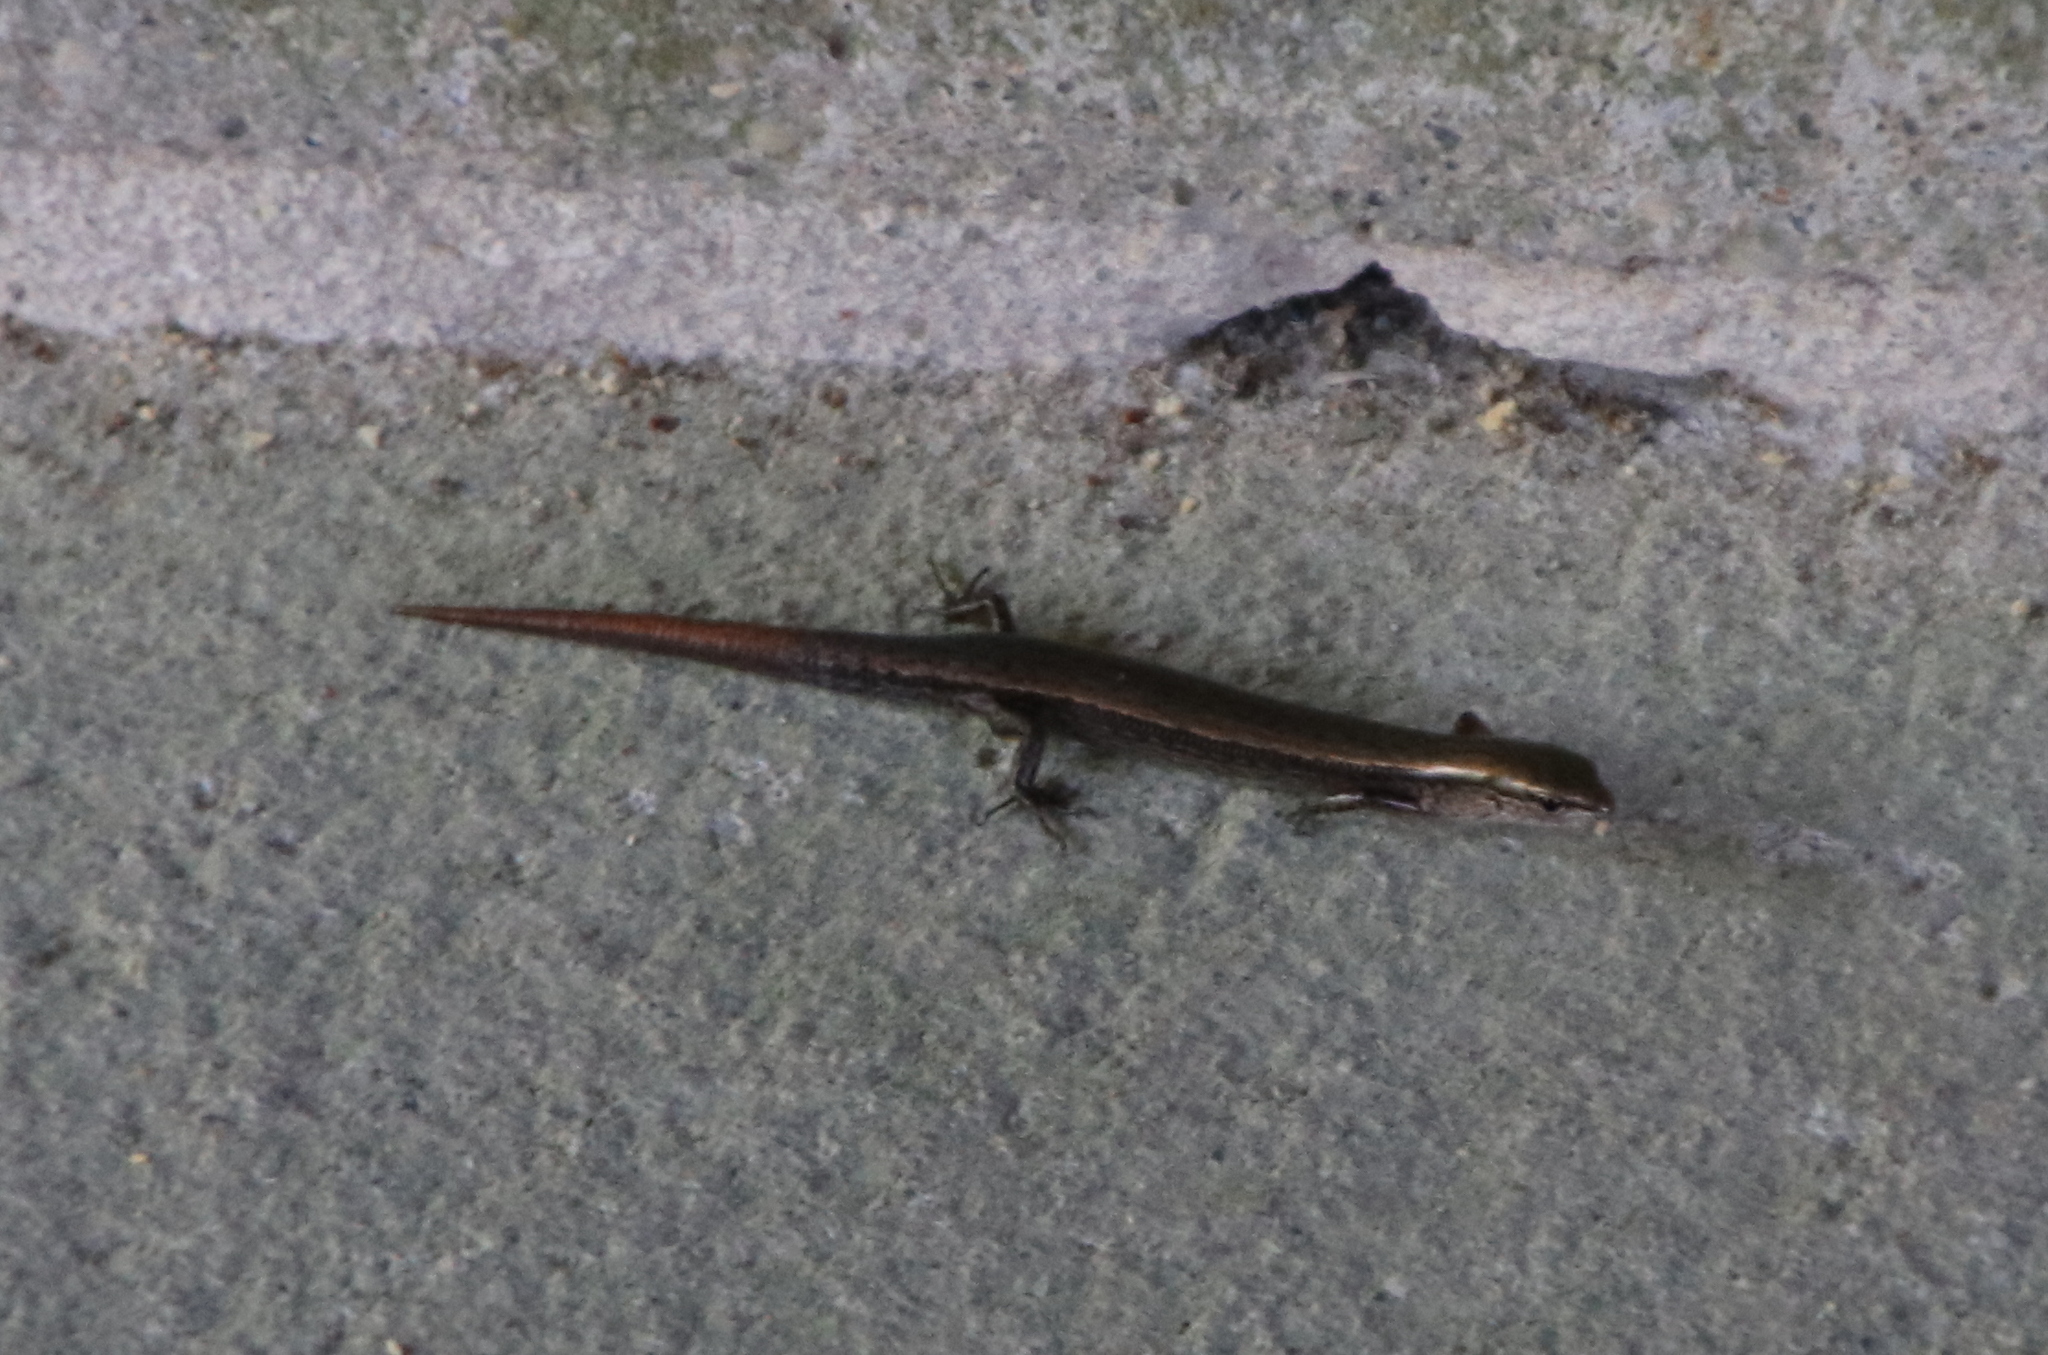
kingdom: Animalia
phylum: Chordata
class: Squamata
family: Scincidae
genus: Scincella
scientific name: Scincella lateralis
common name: Ground skink
